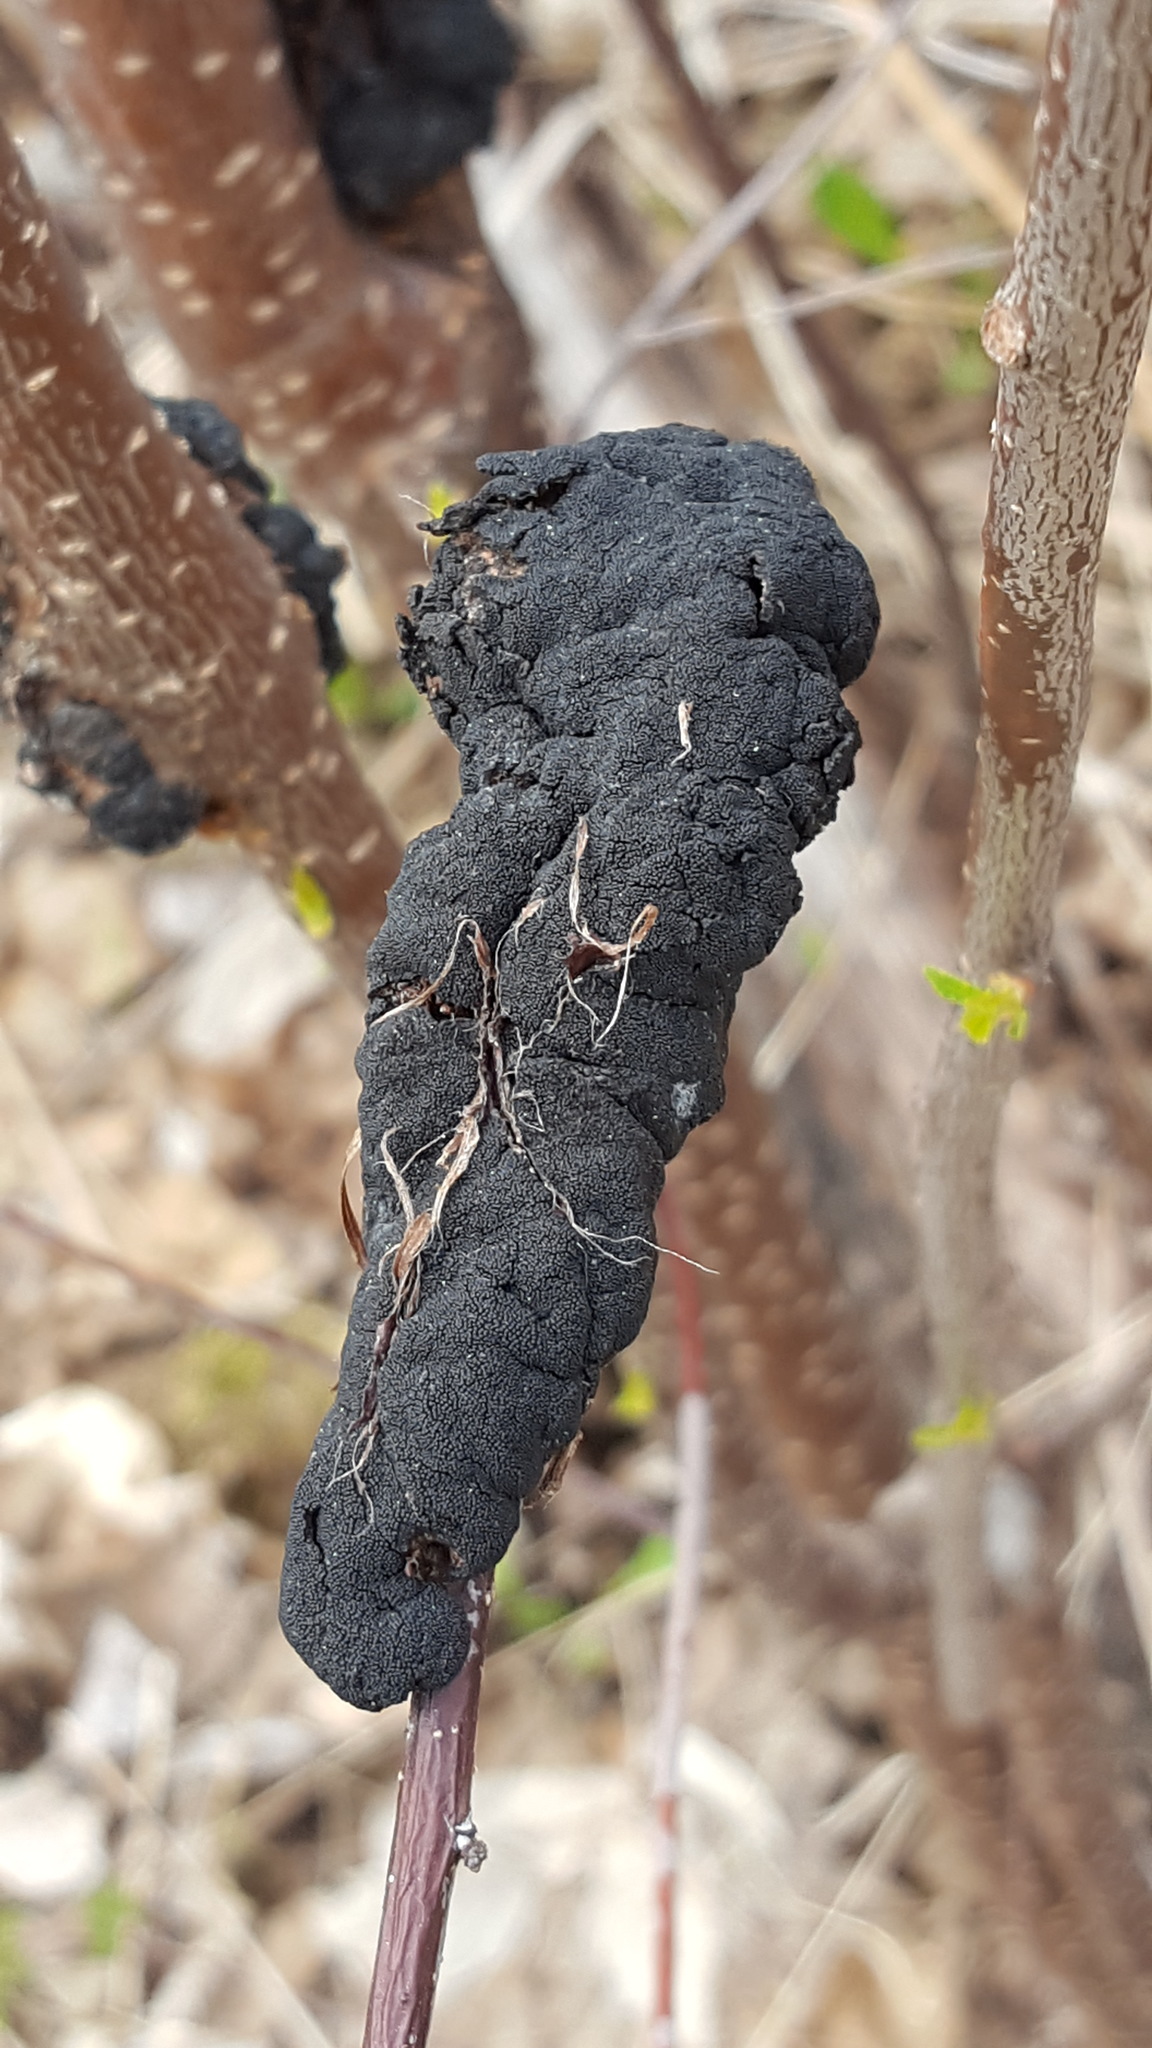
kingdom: Fungi
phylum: Ascomycota
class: Dothideomycetes
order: Venturiales
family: Venturiaceae
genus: Apiosporina
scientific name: Apiosporina morbosa
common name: Black knot
